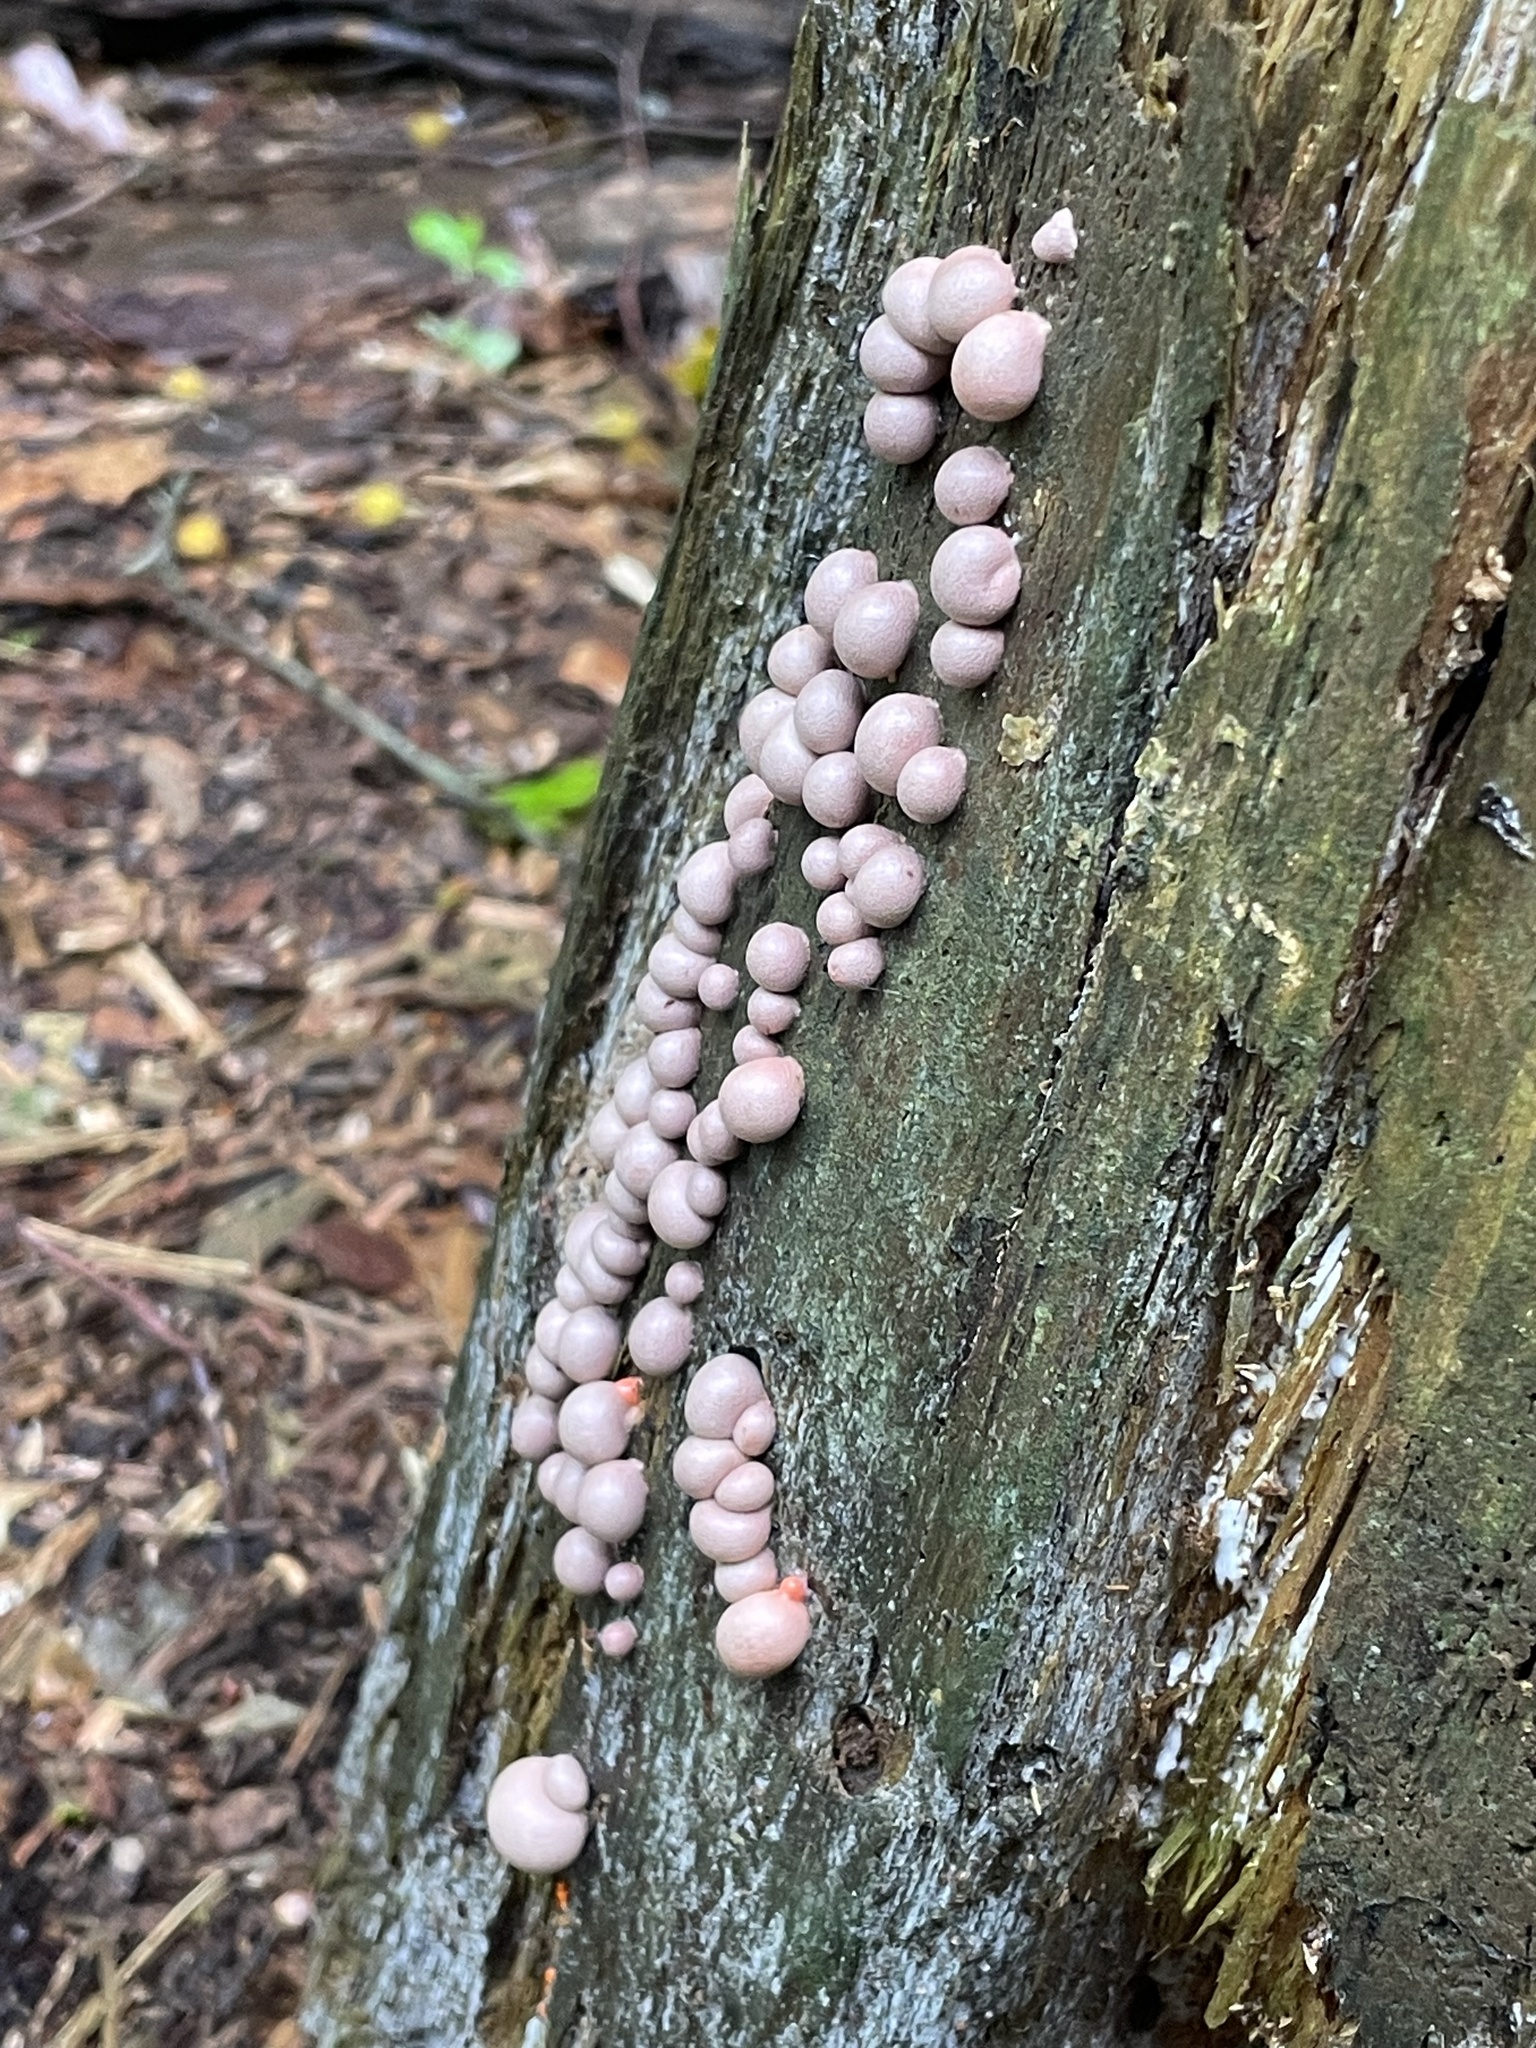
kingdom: Protozoa
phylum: Mycetozoa
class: Myxomycetes
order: Cribrariales
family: Tubiferaceae
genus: Lycogala
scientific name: Lycogala epidendrum
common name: Wolf's milk
